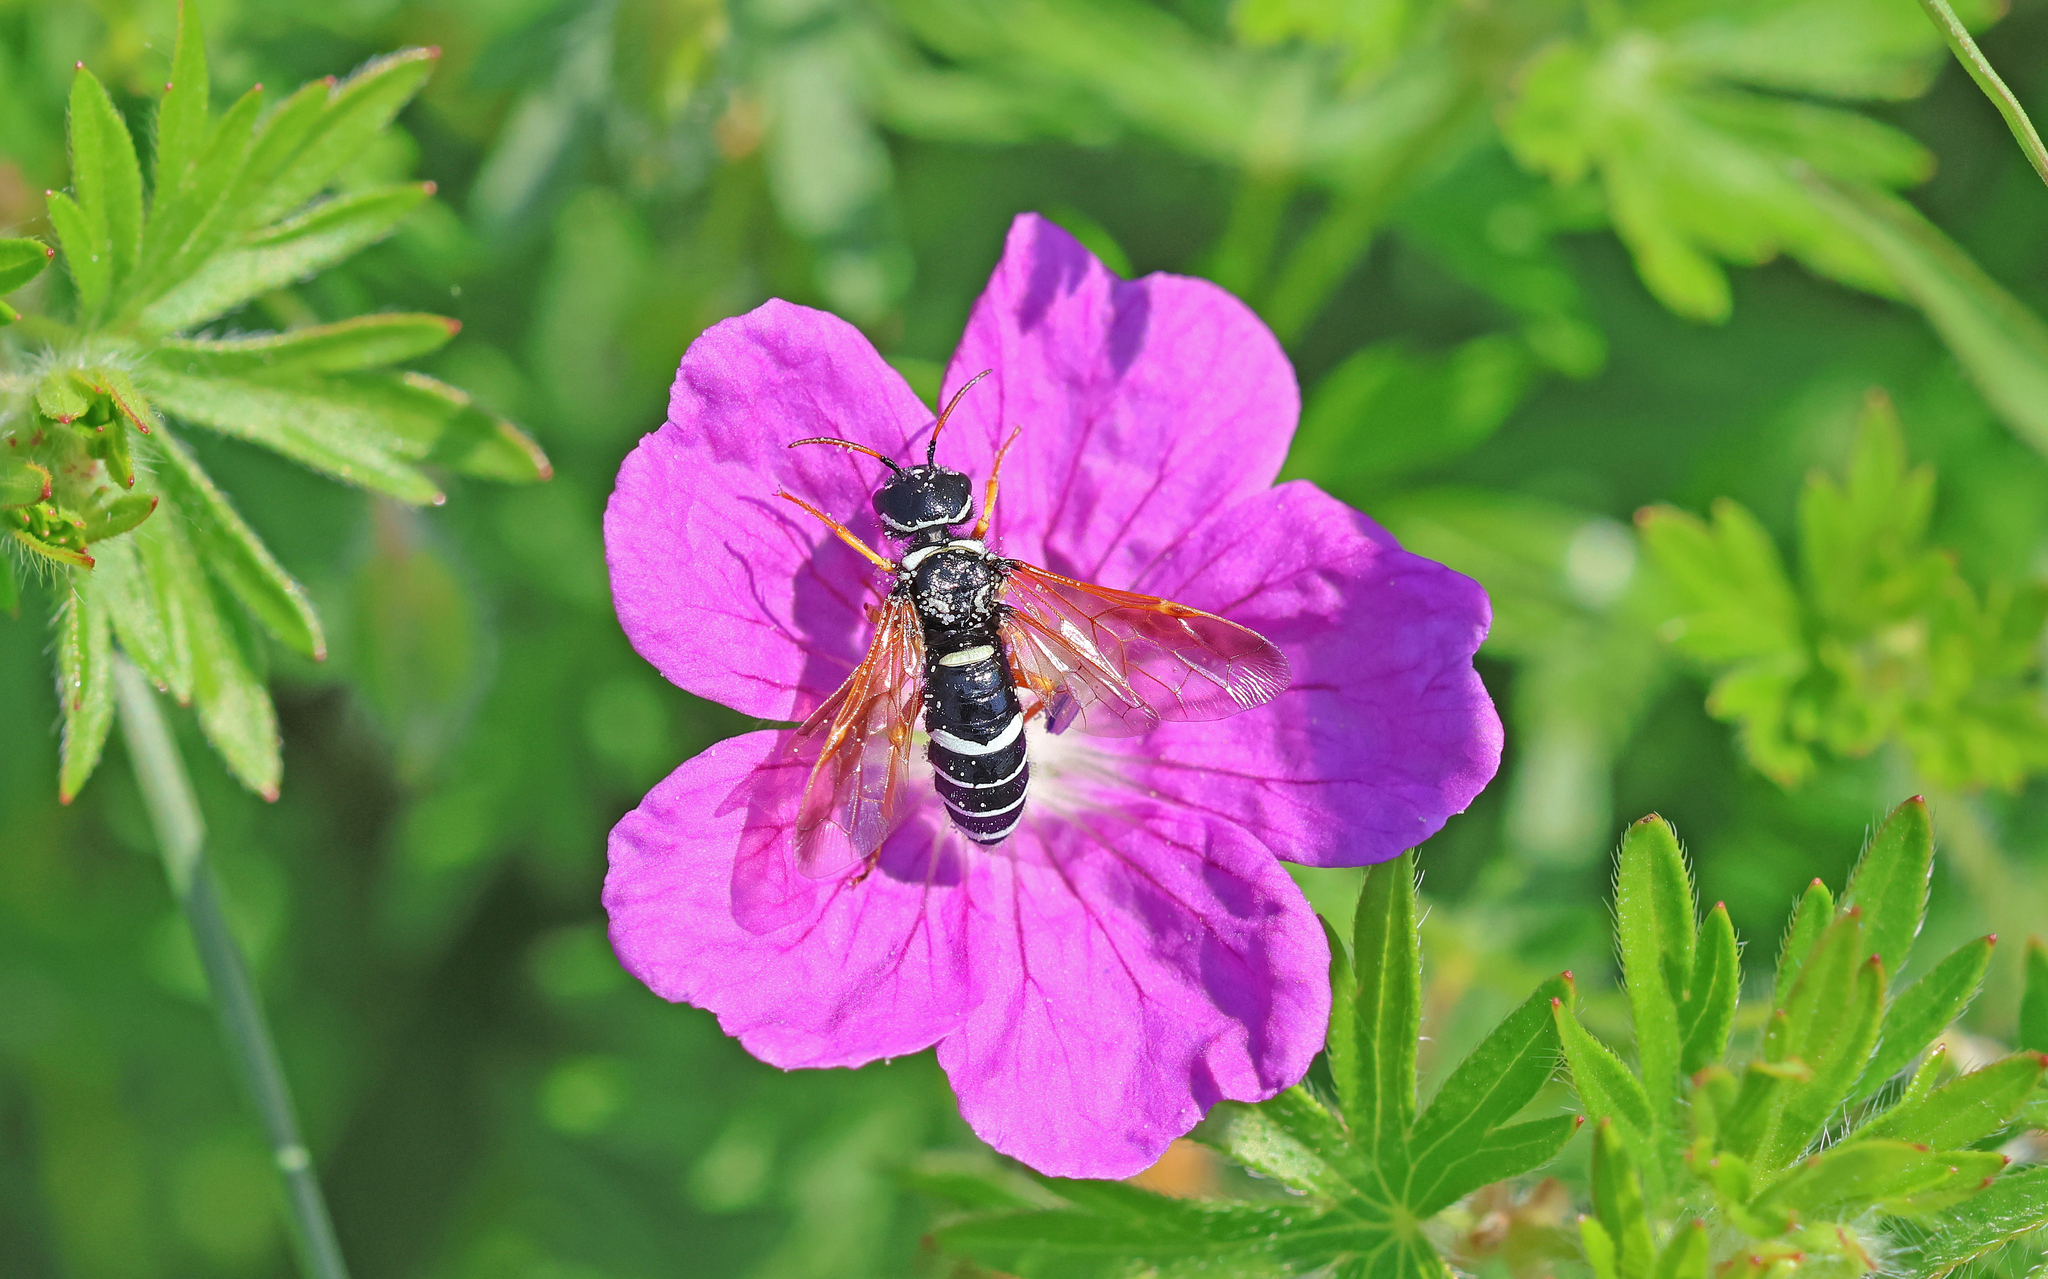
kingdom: Animalia
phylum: Arthropoda
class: Insecta
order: Hymenoptera
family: Megalodontesidae
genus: Megalodontes
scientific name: Megalodontes plagiocephalus
